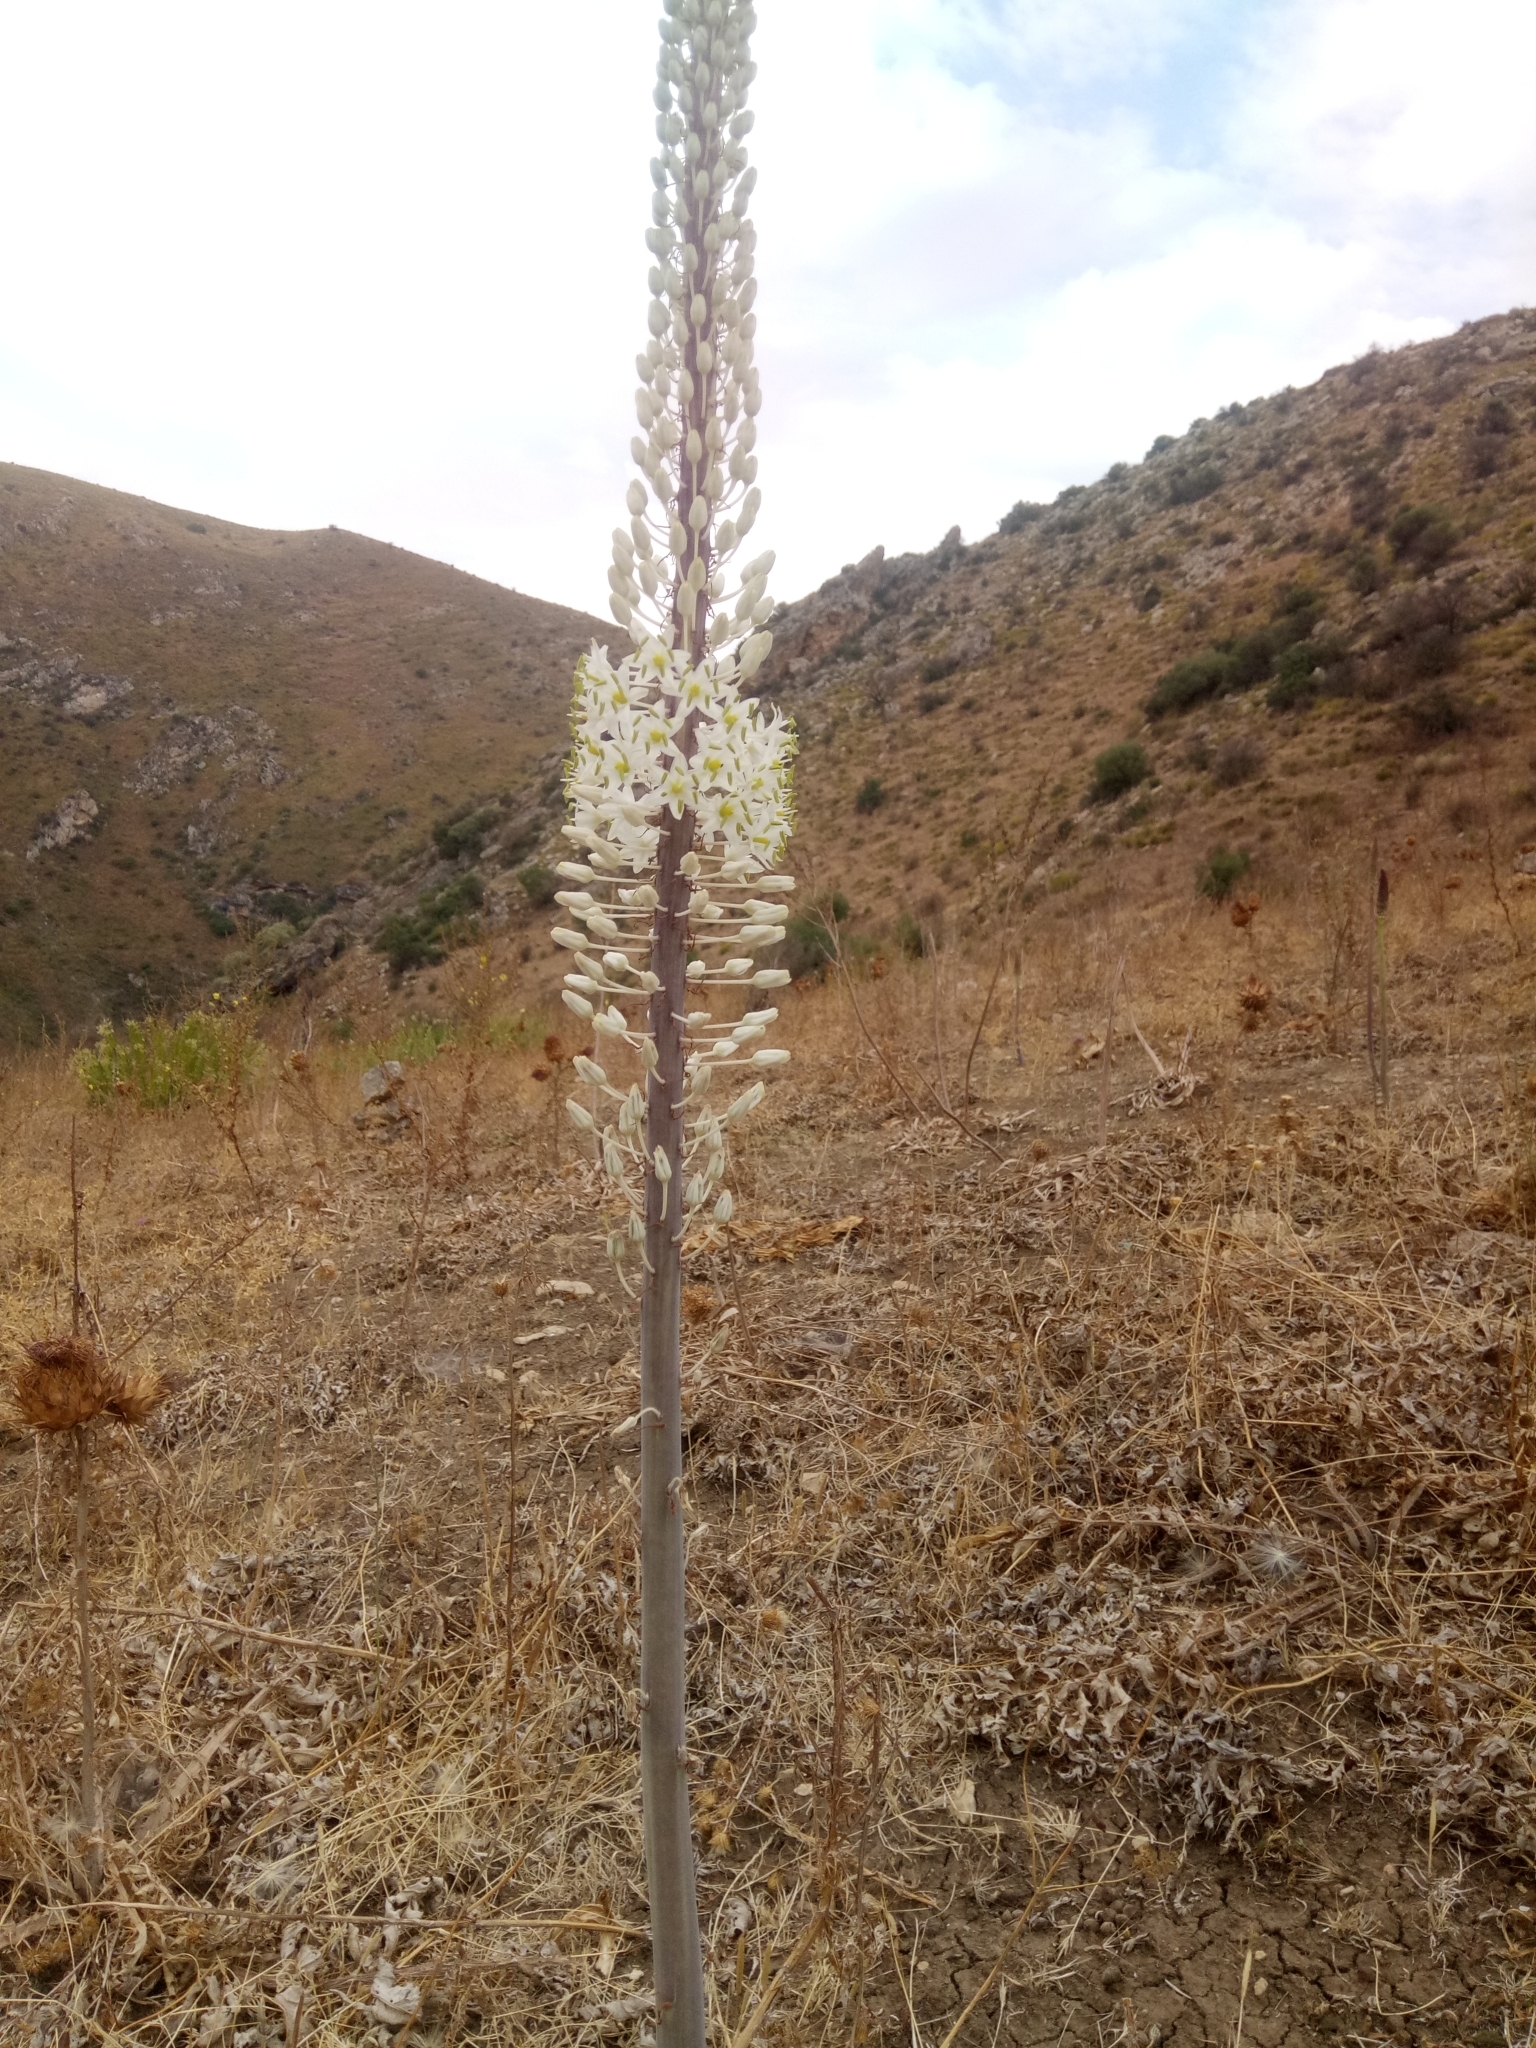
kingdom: Plantae
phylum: Tracheophyta
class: Liliopsida
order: Asparagales
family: Asparagaceae
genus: Drimia
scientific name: Drimia numidica
